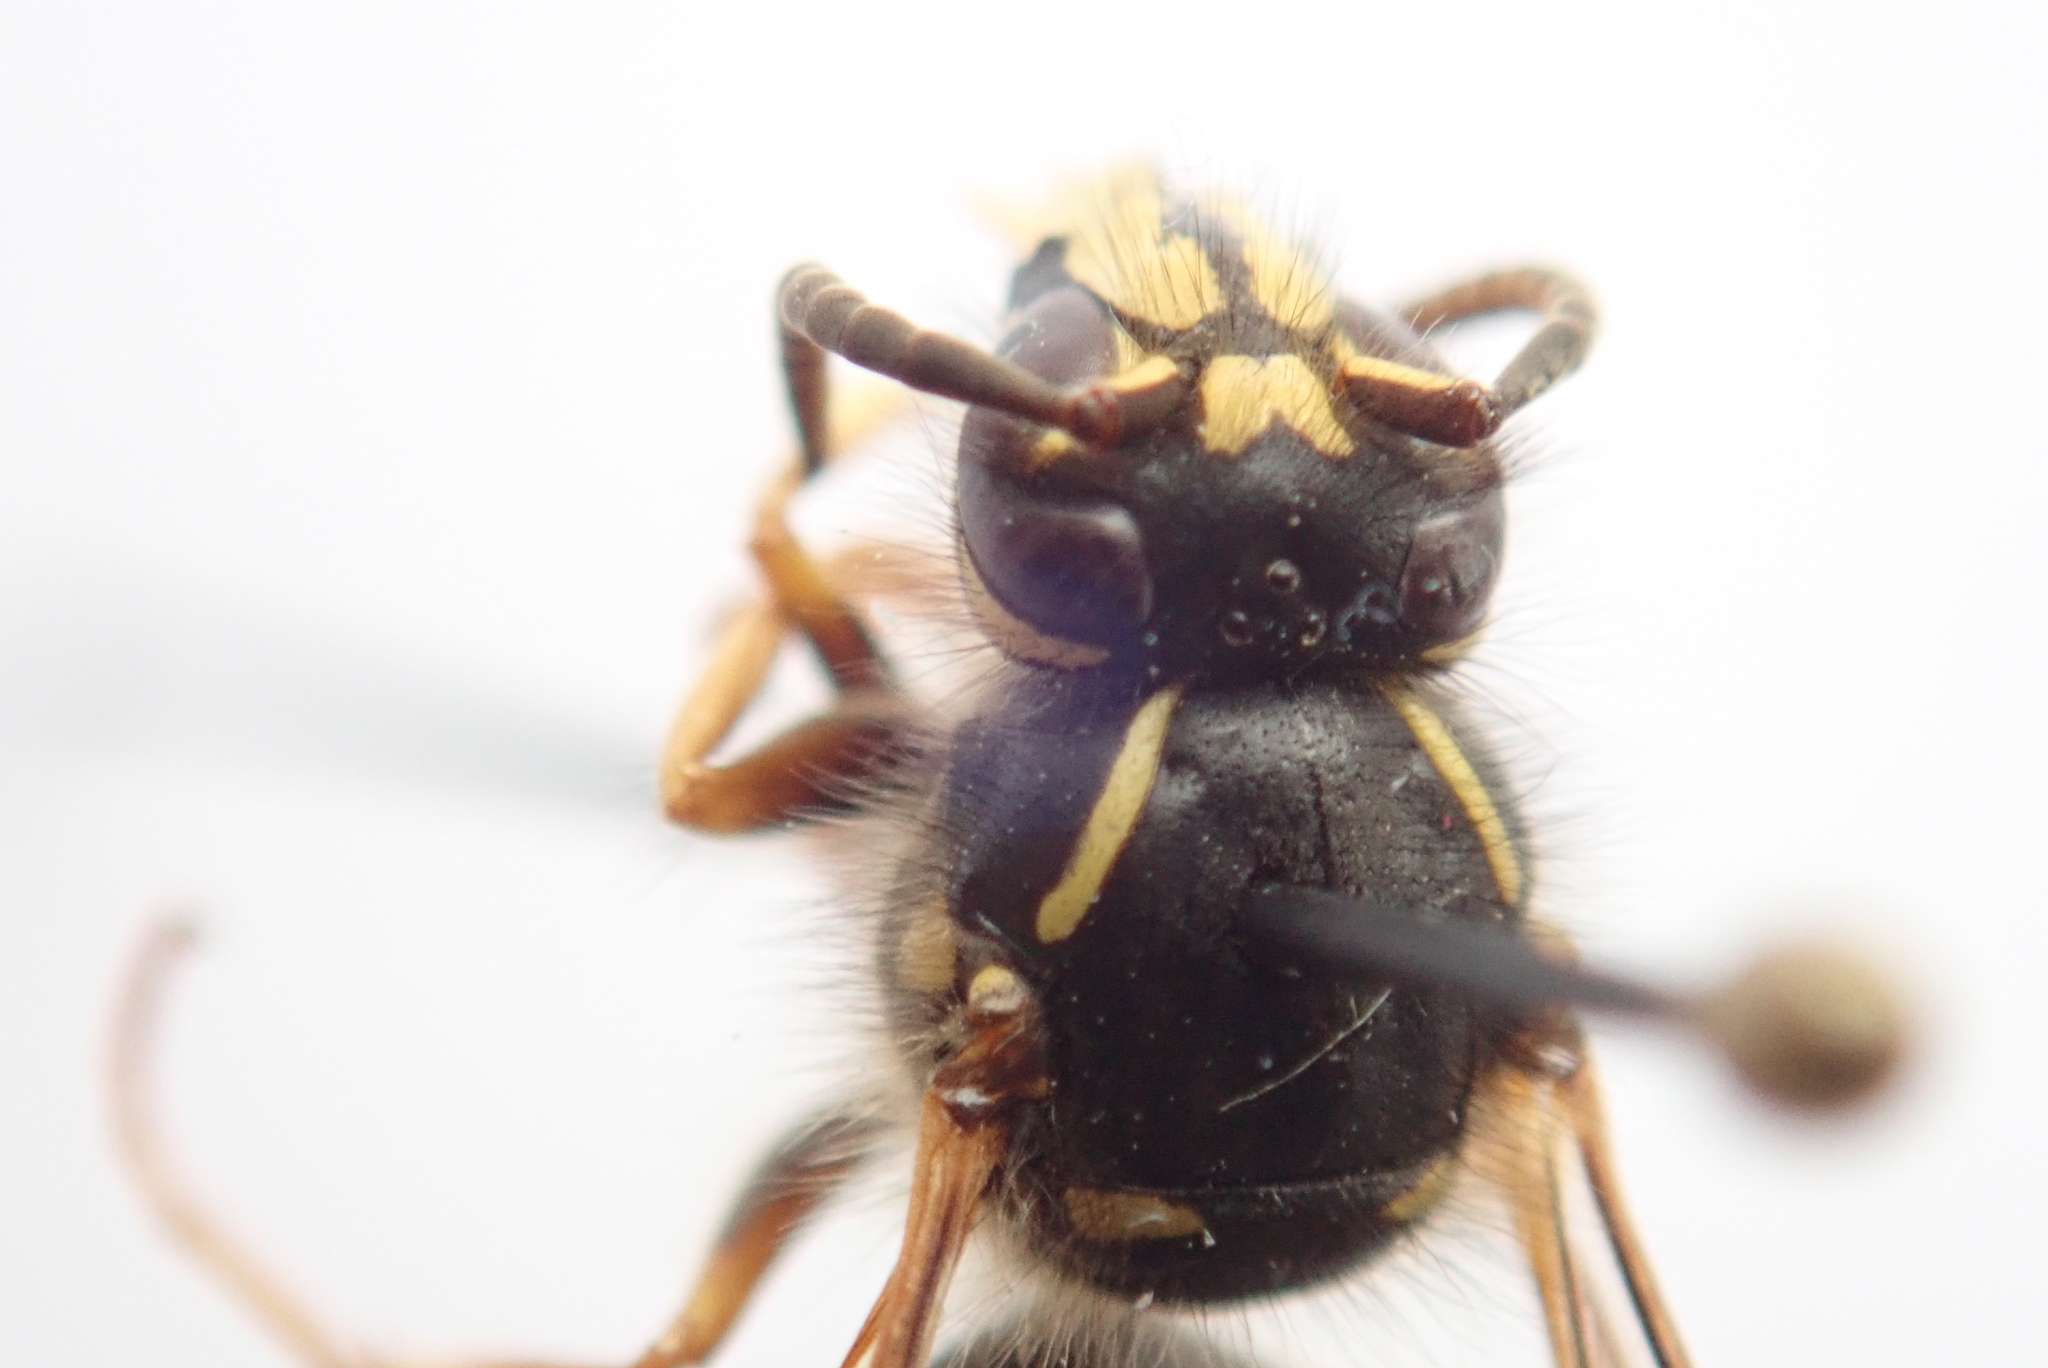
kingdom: Animalia
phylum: Arthropoda
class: Insecta
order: Hymenoptera
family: Vespidae
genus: Dolichovespula
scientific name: Dolichovespula norvegicoides
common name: Northern aerial yellowjacket
